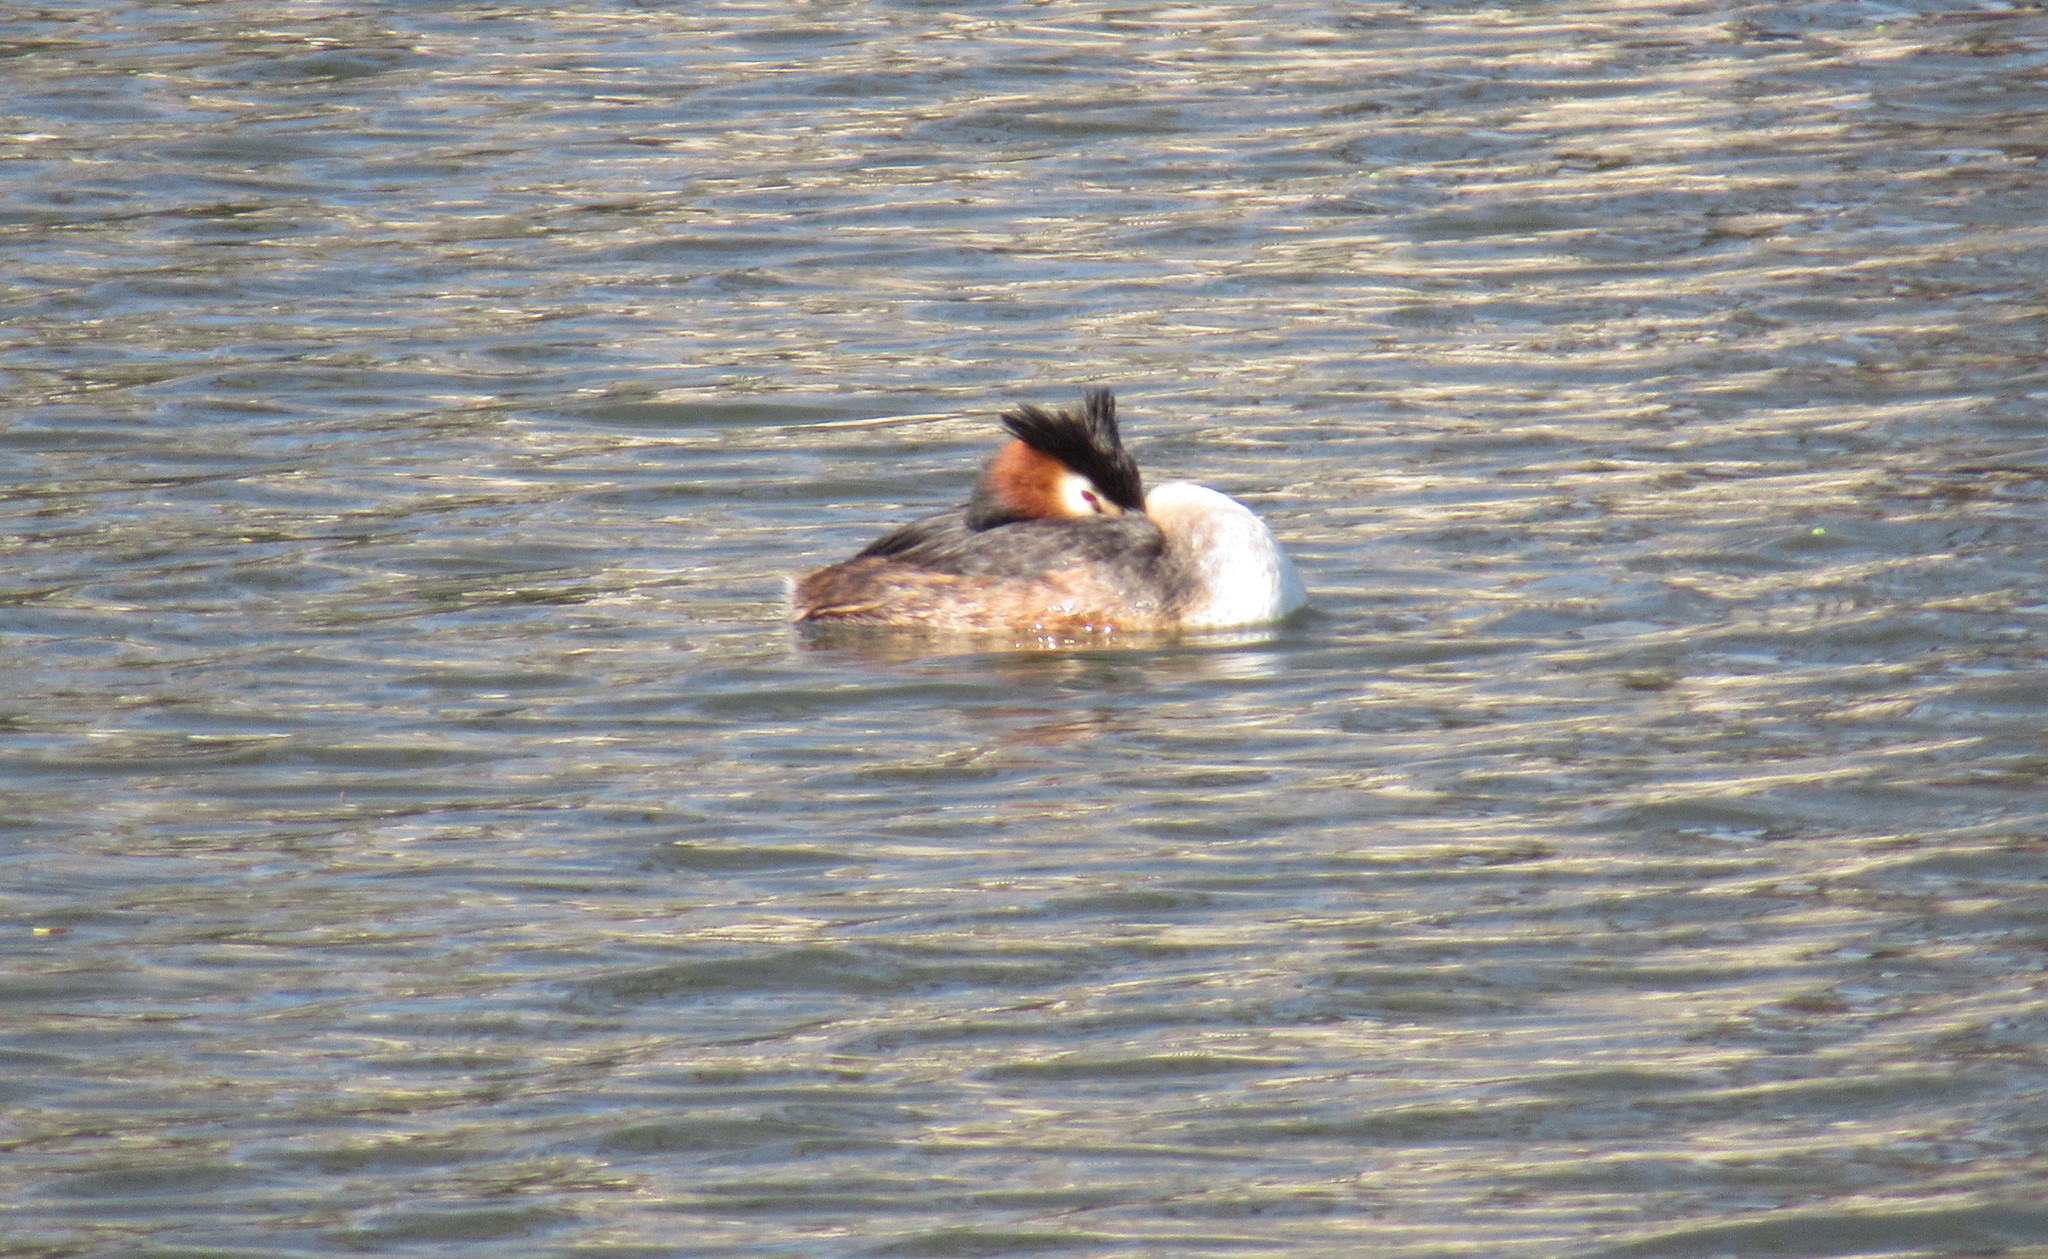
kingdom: Animalia
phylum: Chordata
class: Aves
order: Podicipediformes
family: Podicipedidae
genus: Podiceps
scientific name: Podiceps cristatus
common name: Great crested grebe
